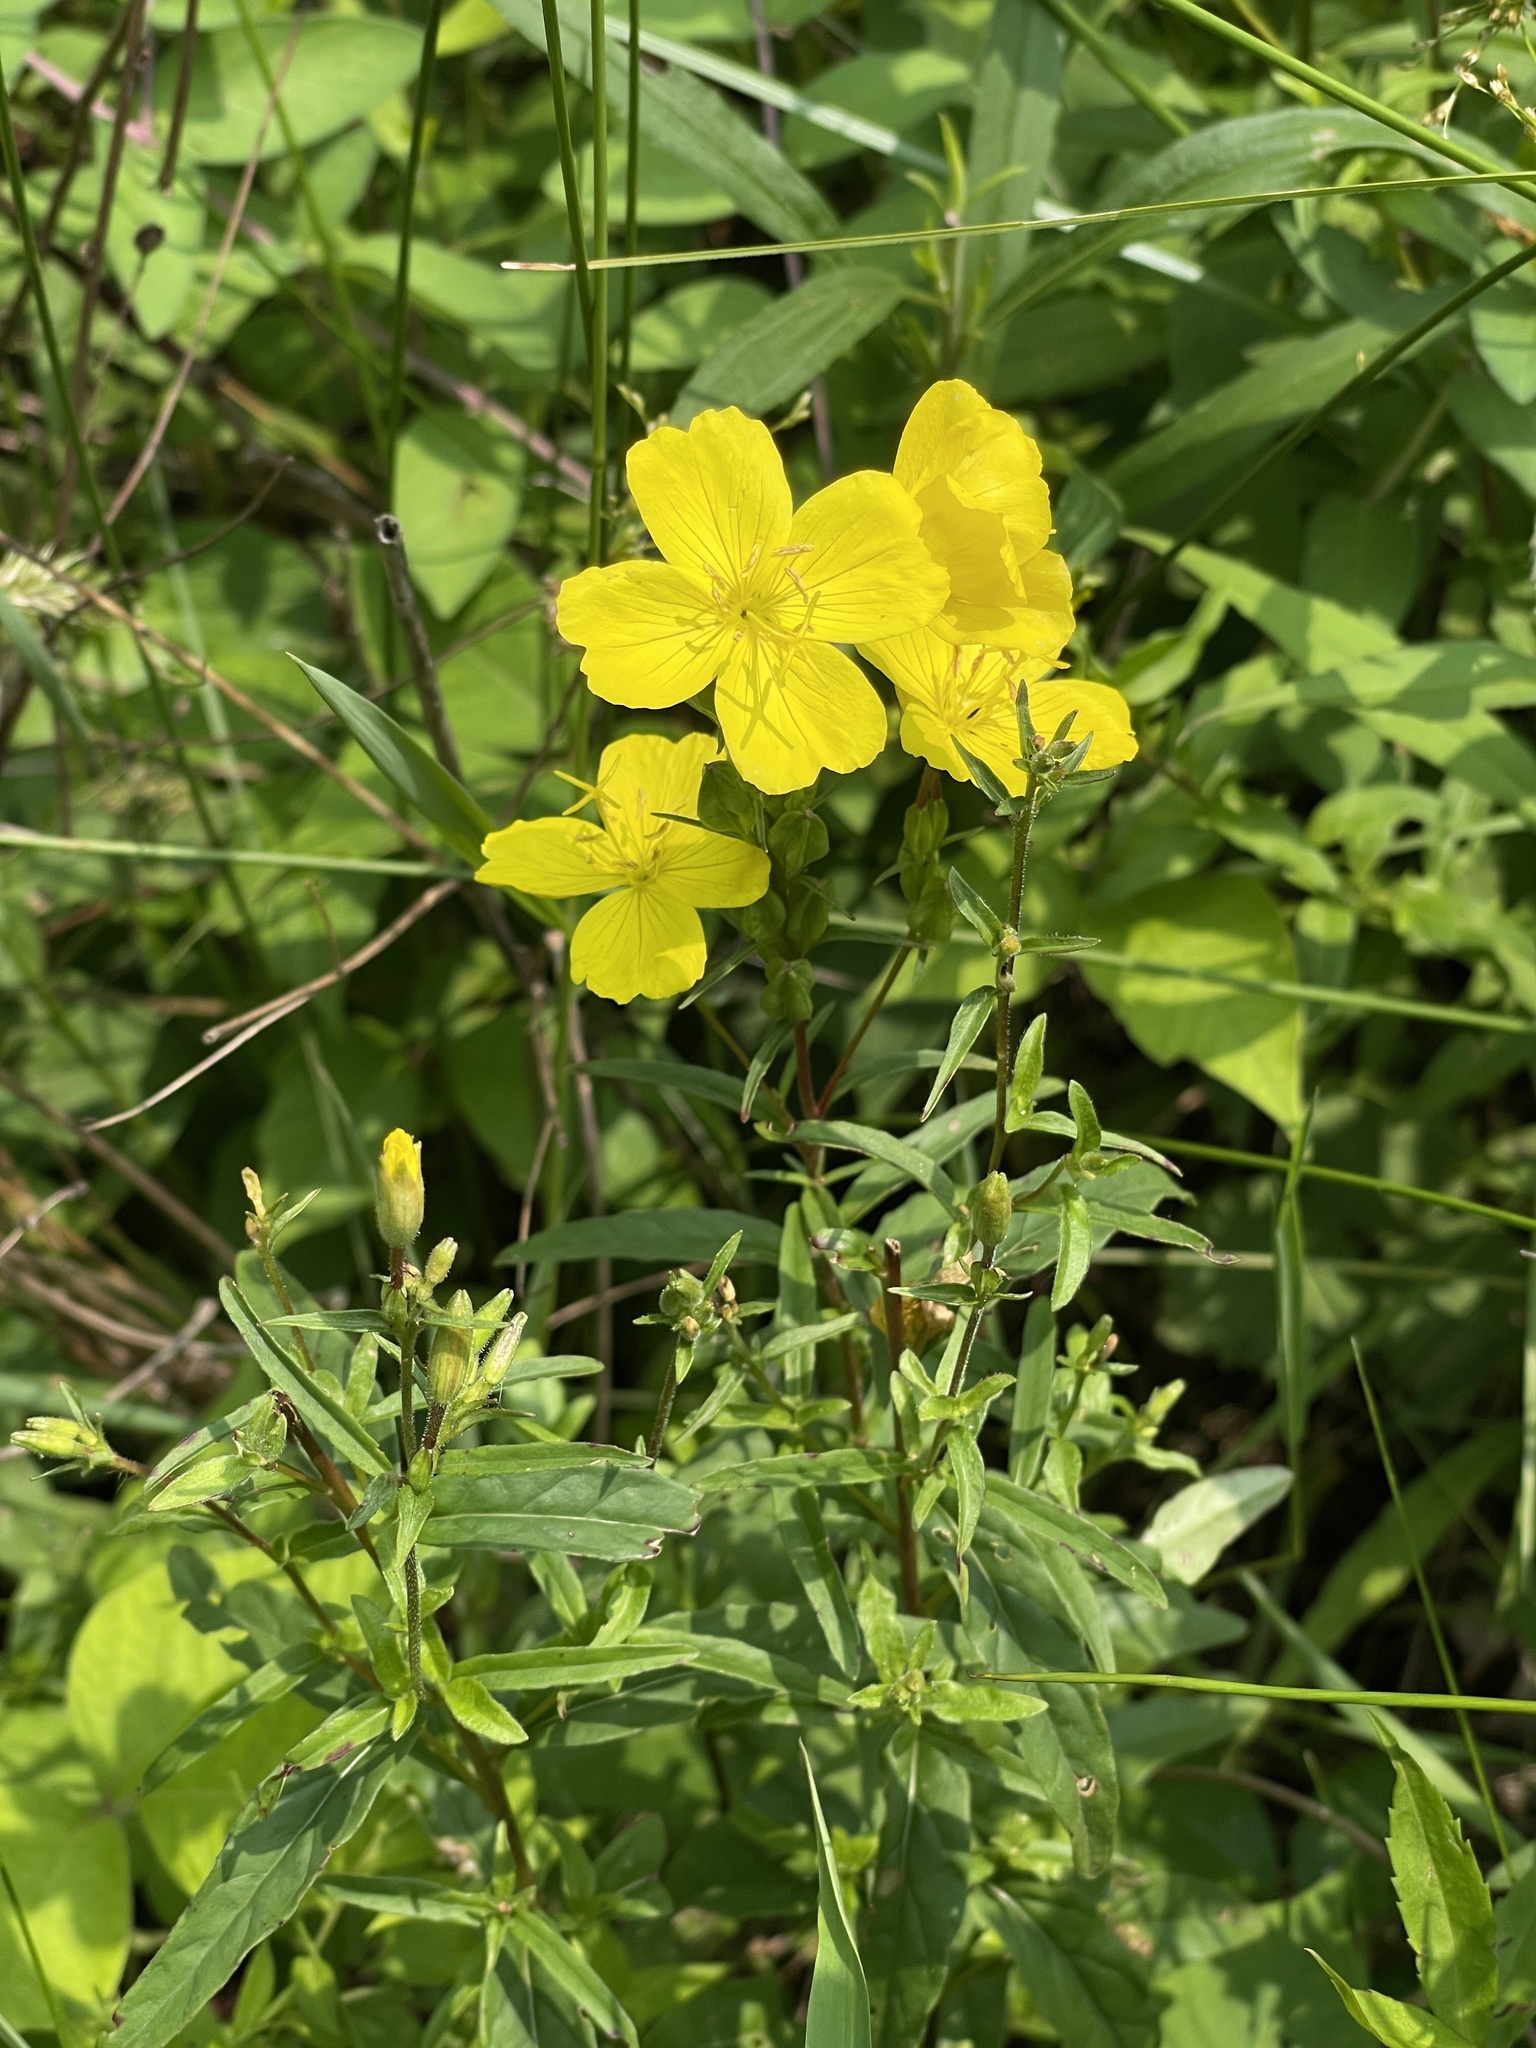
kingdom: Plantae
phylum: Tracheophyta
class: Magnoliopsida
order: Myrtales
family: Onagraceae
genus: Oenothera
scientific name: Oenothera fruticosa
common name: Southern sundrops
